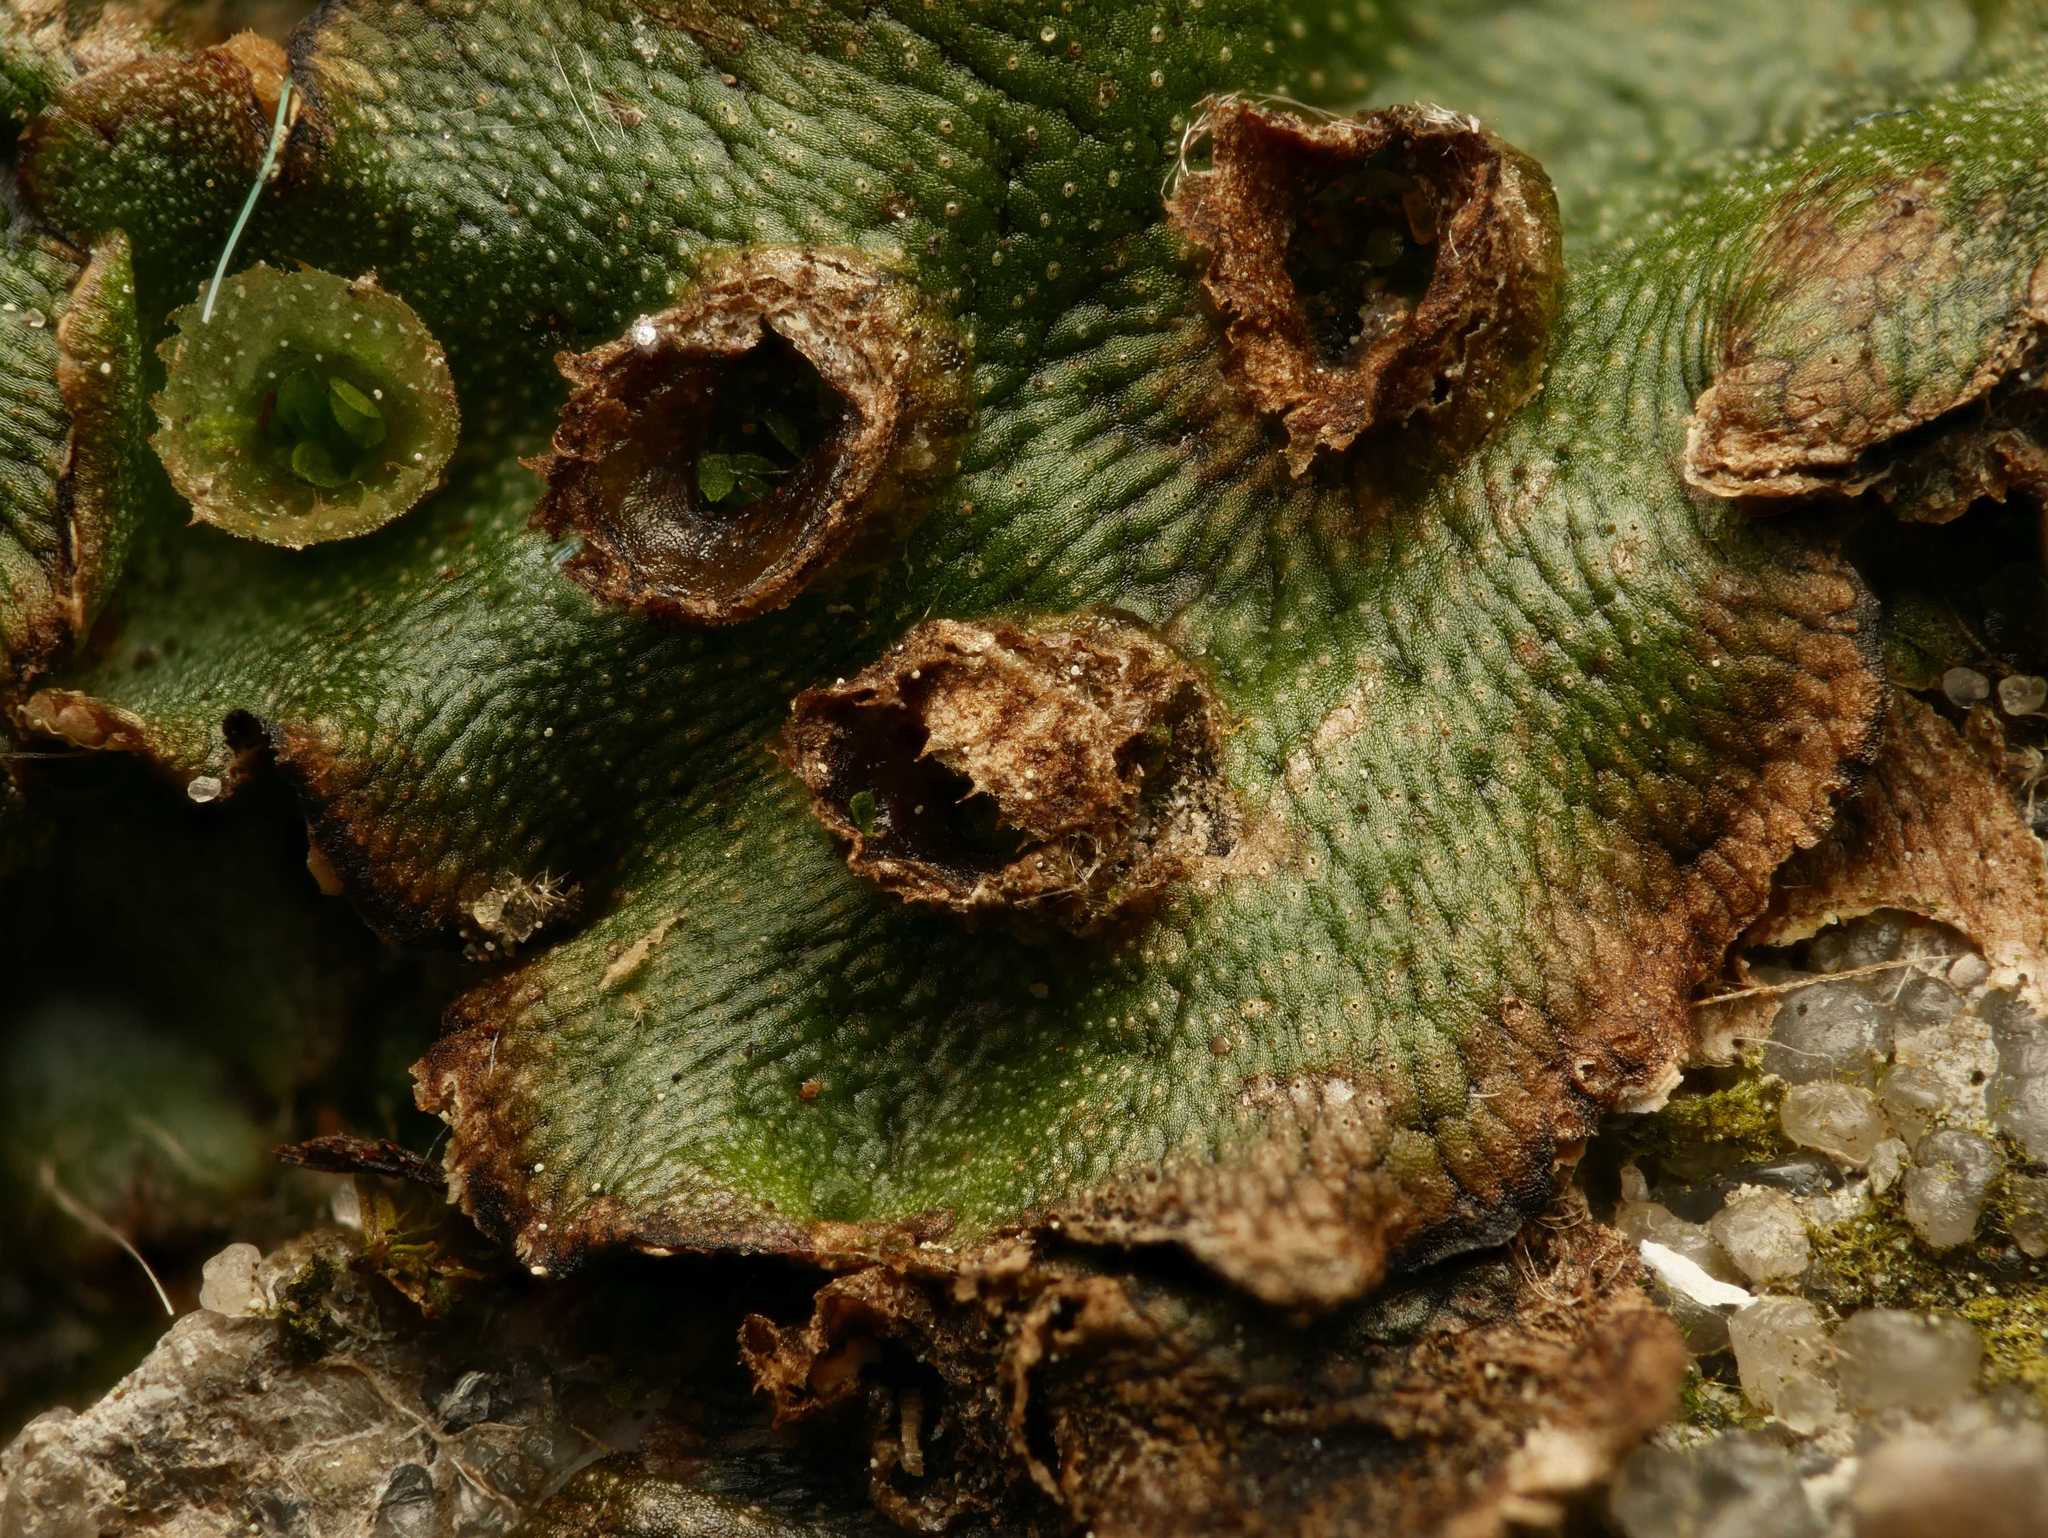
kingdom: Plantae
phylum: Marchantiophyta
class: Marchantiopsida
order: Marchantiales
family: Marchantiaceae
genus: Marchantia
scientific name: Marchantia polymorpha
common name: Common liverwort
